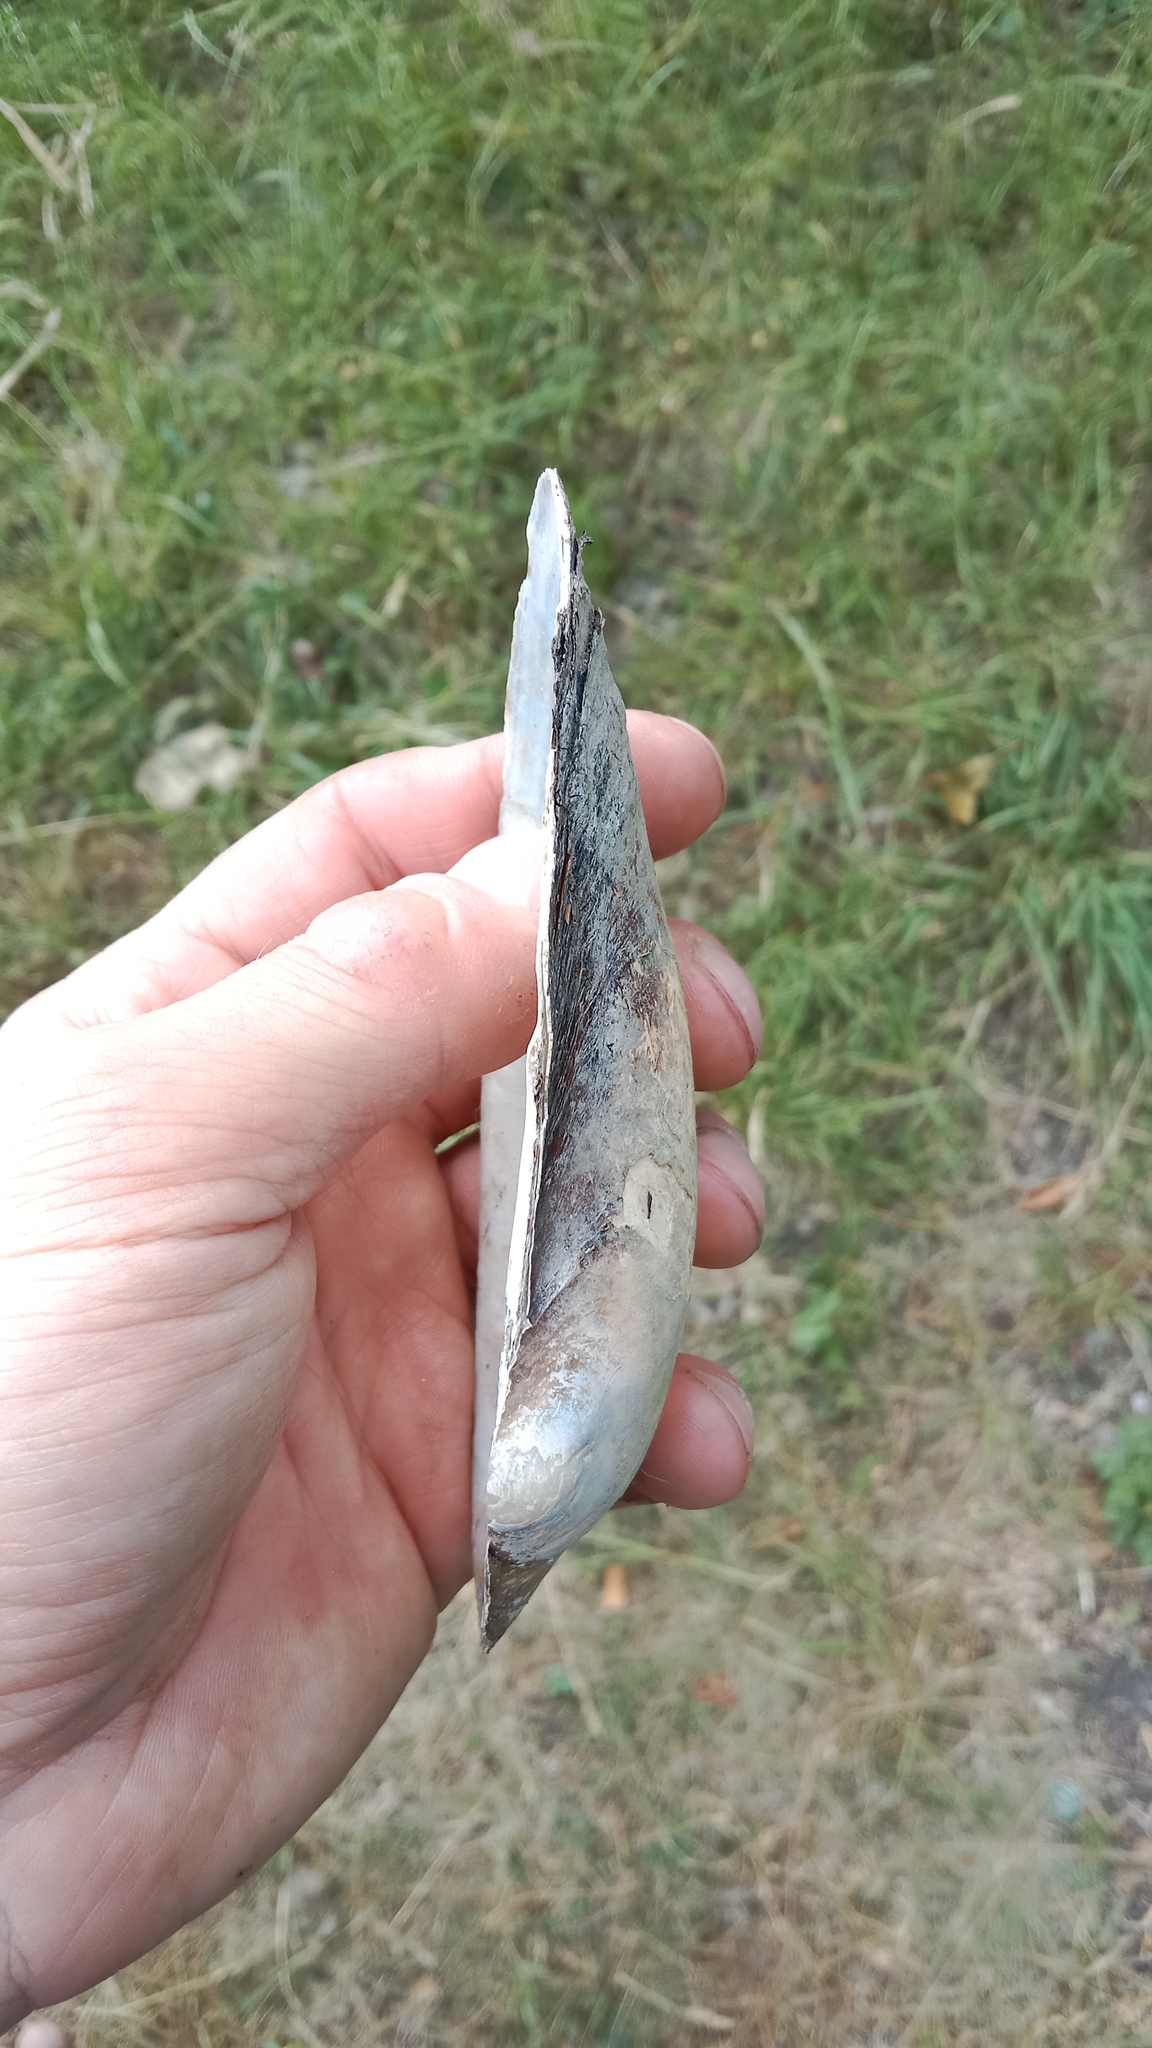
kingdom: Animalia
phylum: Mollusca
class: Bivalvia
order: Unionida
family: Unionidae
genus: Anodonta
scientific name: Anodonta anatina
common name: Duck mussel
